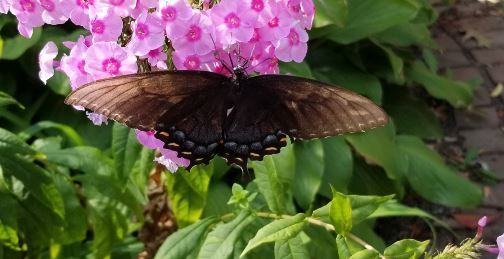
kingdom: Animalia
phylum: Arthropoda
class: Insecta
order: Lepidoptera
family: Papilionidae
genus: Papilio
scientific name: Papilio glaucus
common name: Tiger swallowtail
